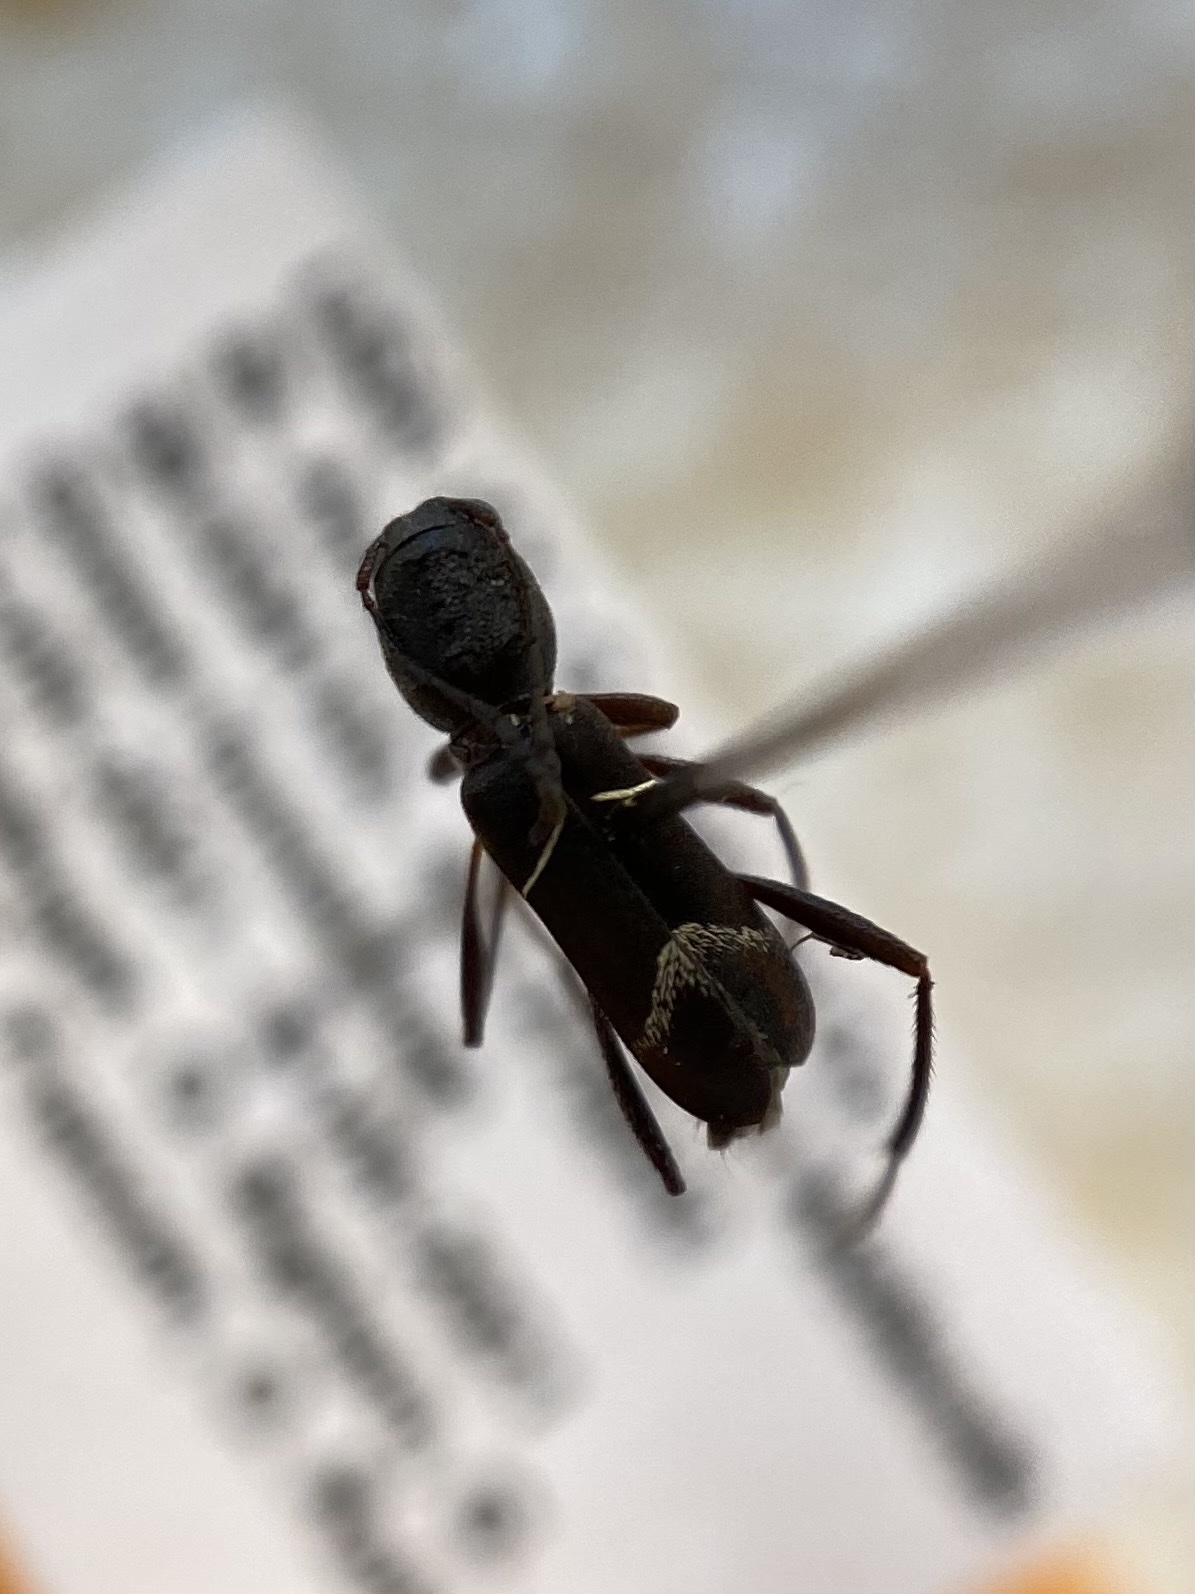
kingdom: Animalia
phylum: Arthropoda
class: Insecta
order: Coleoptera
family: Cerambycidae
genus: Neoclytus
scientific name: Neoclytus jouteli
